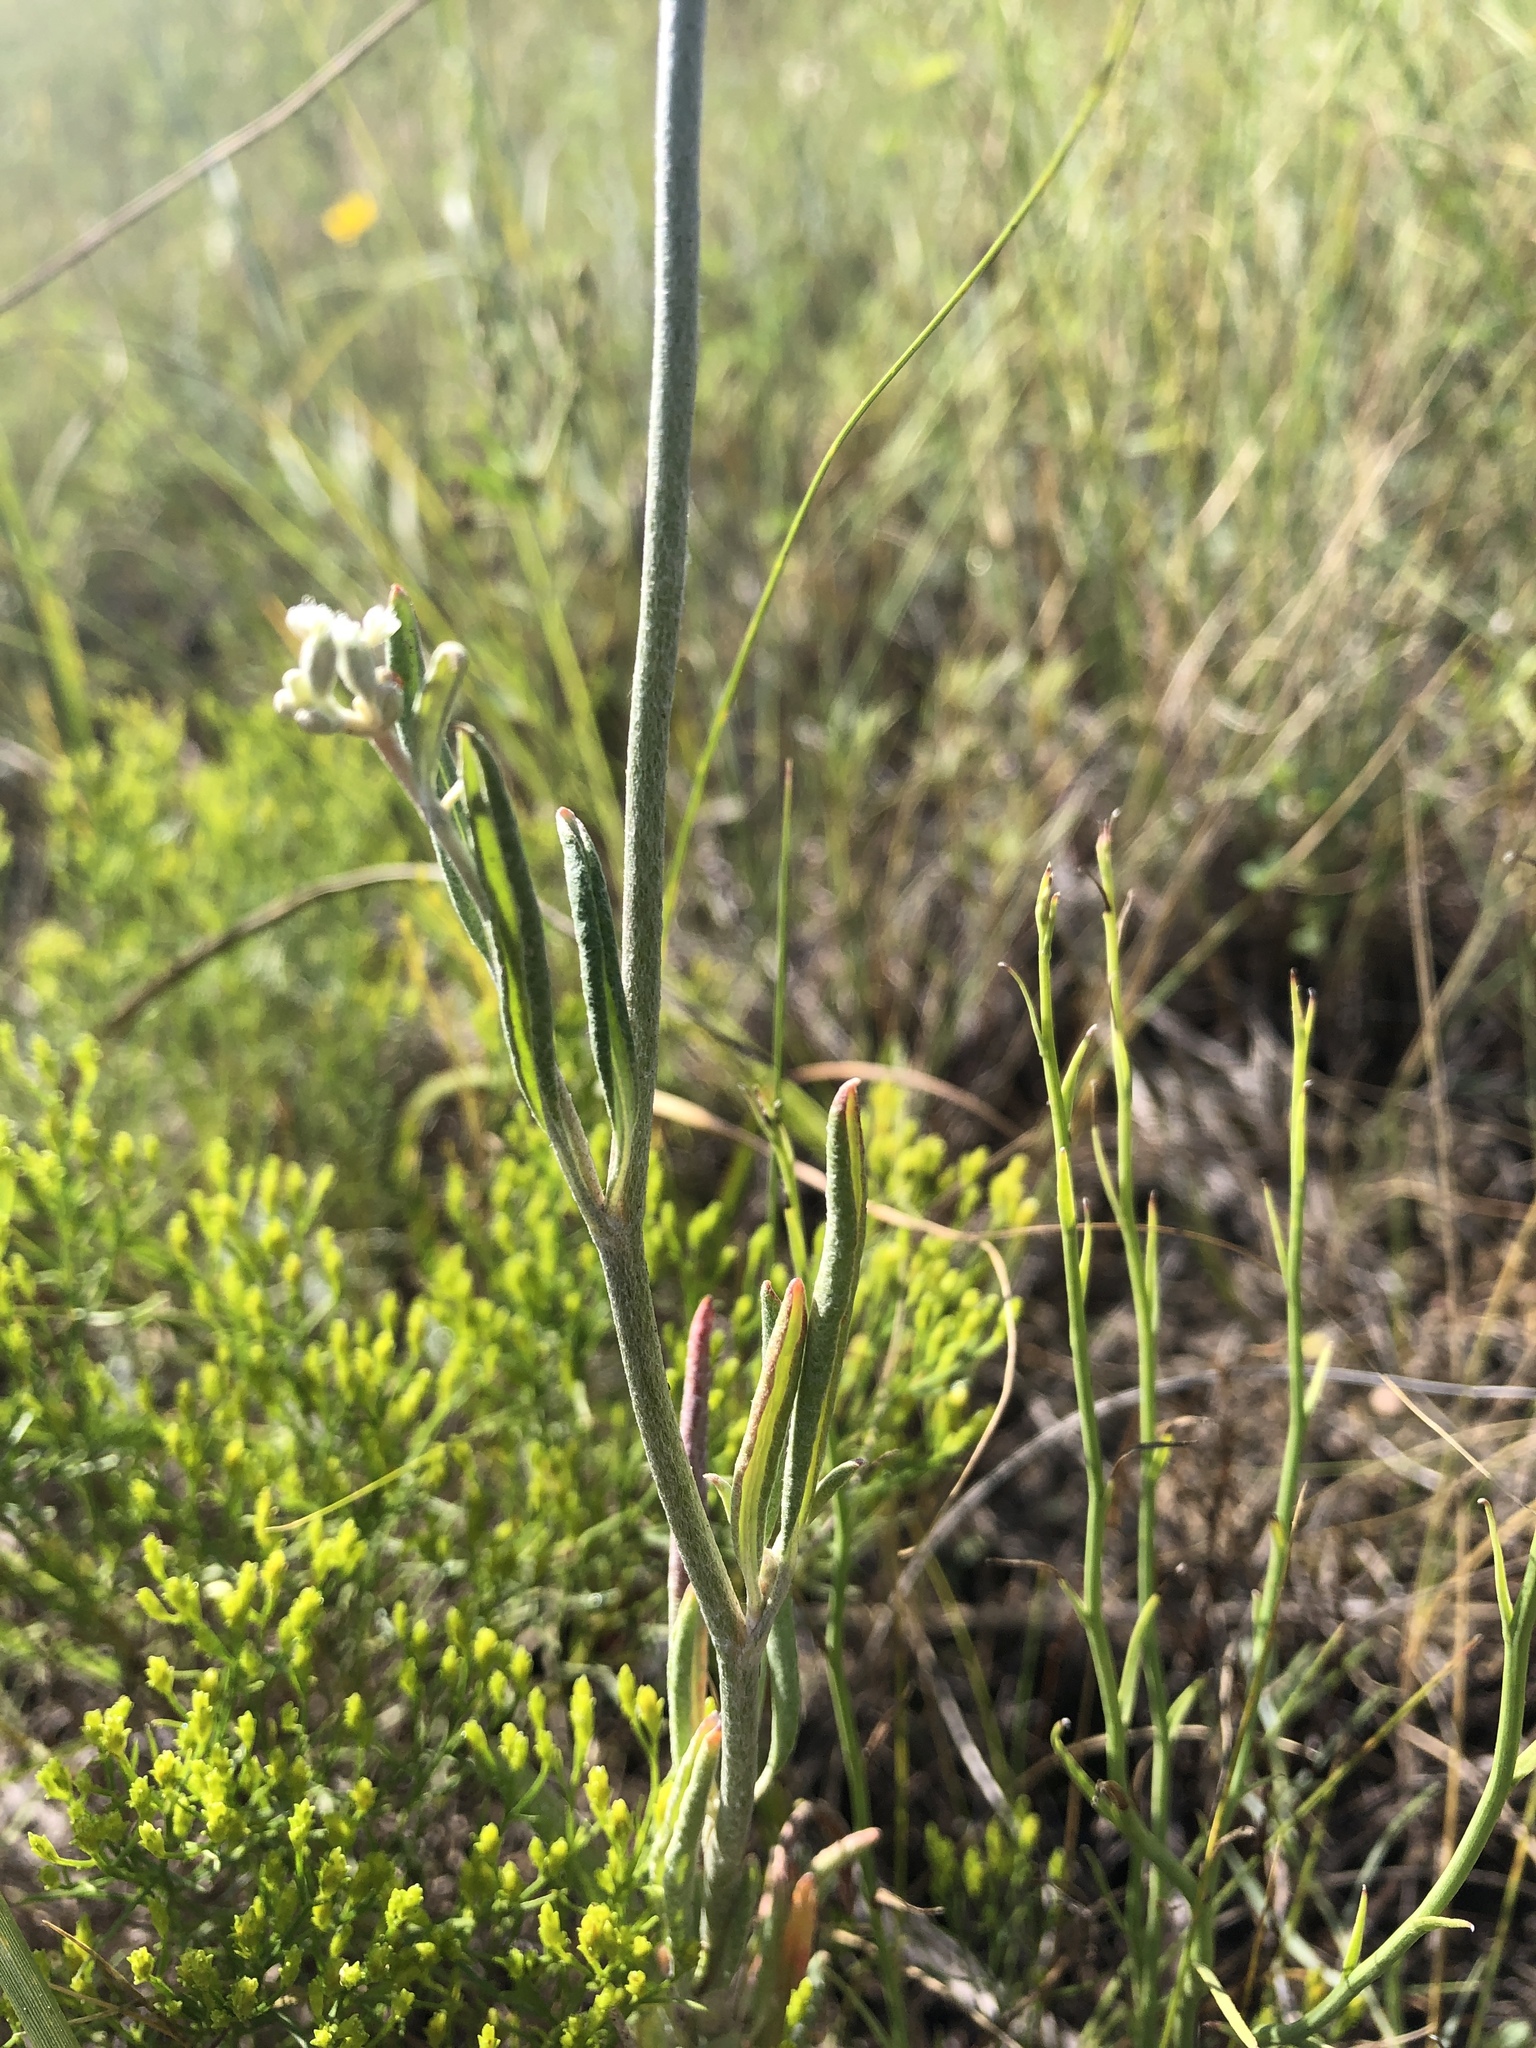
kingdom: Plantae
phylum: Tracheophyta
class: Magnoliopsida
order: Caryophyllales
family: Polygonaceae
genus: Eriogonum
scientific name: Eriogonum annuum
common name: Annual wild buckwheat
